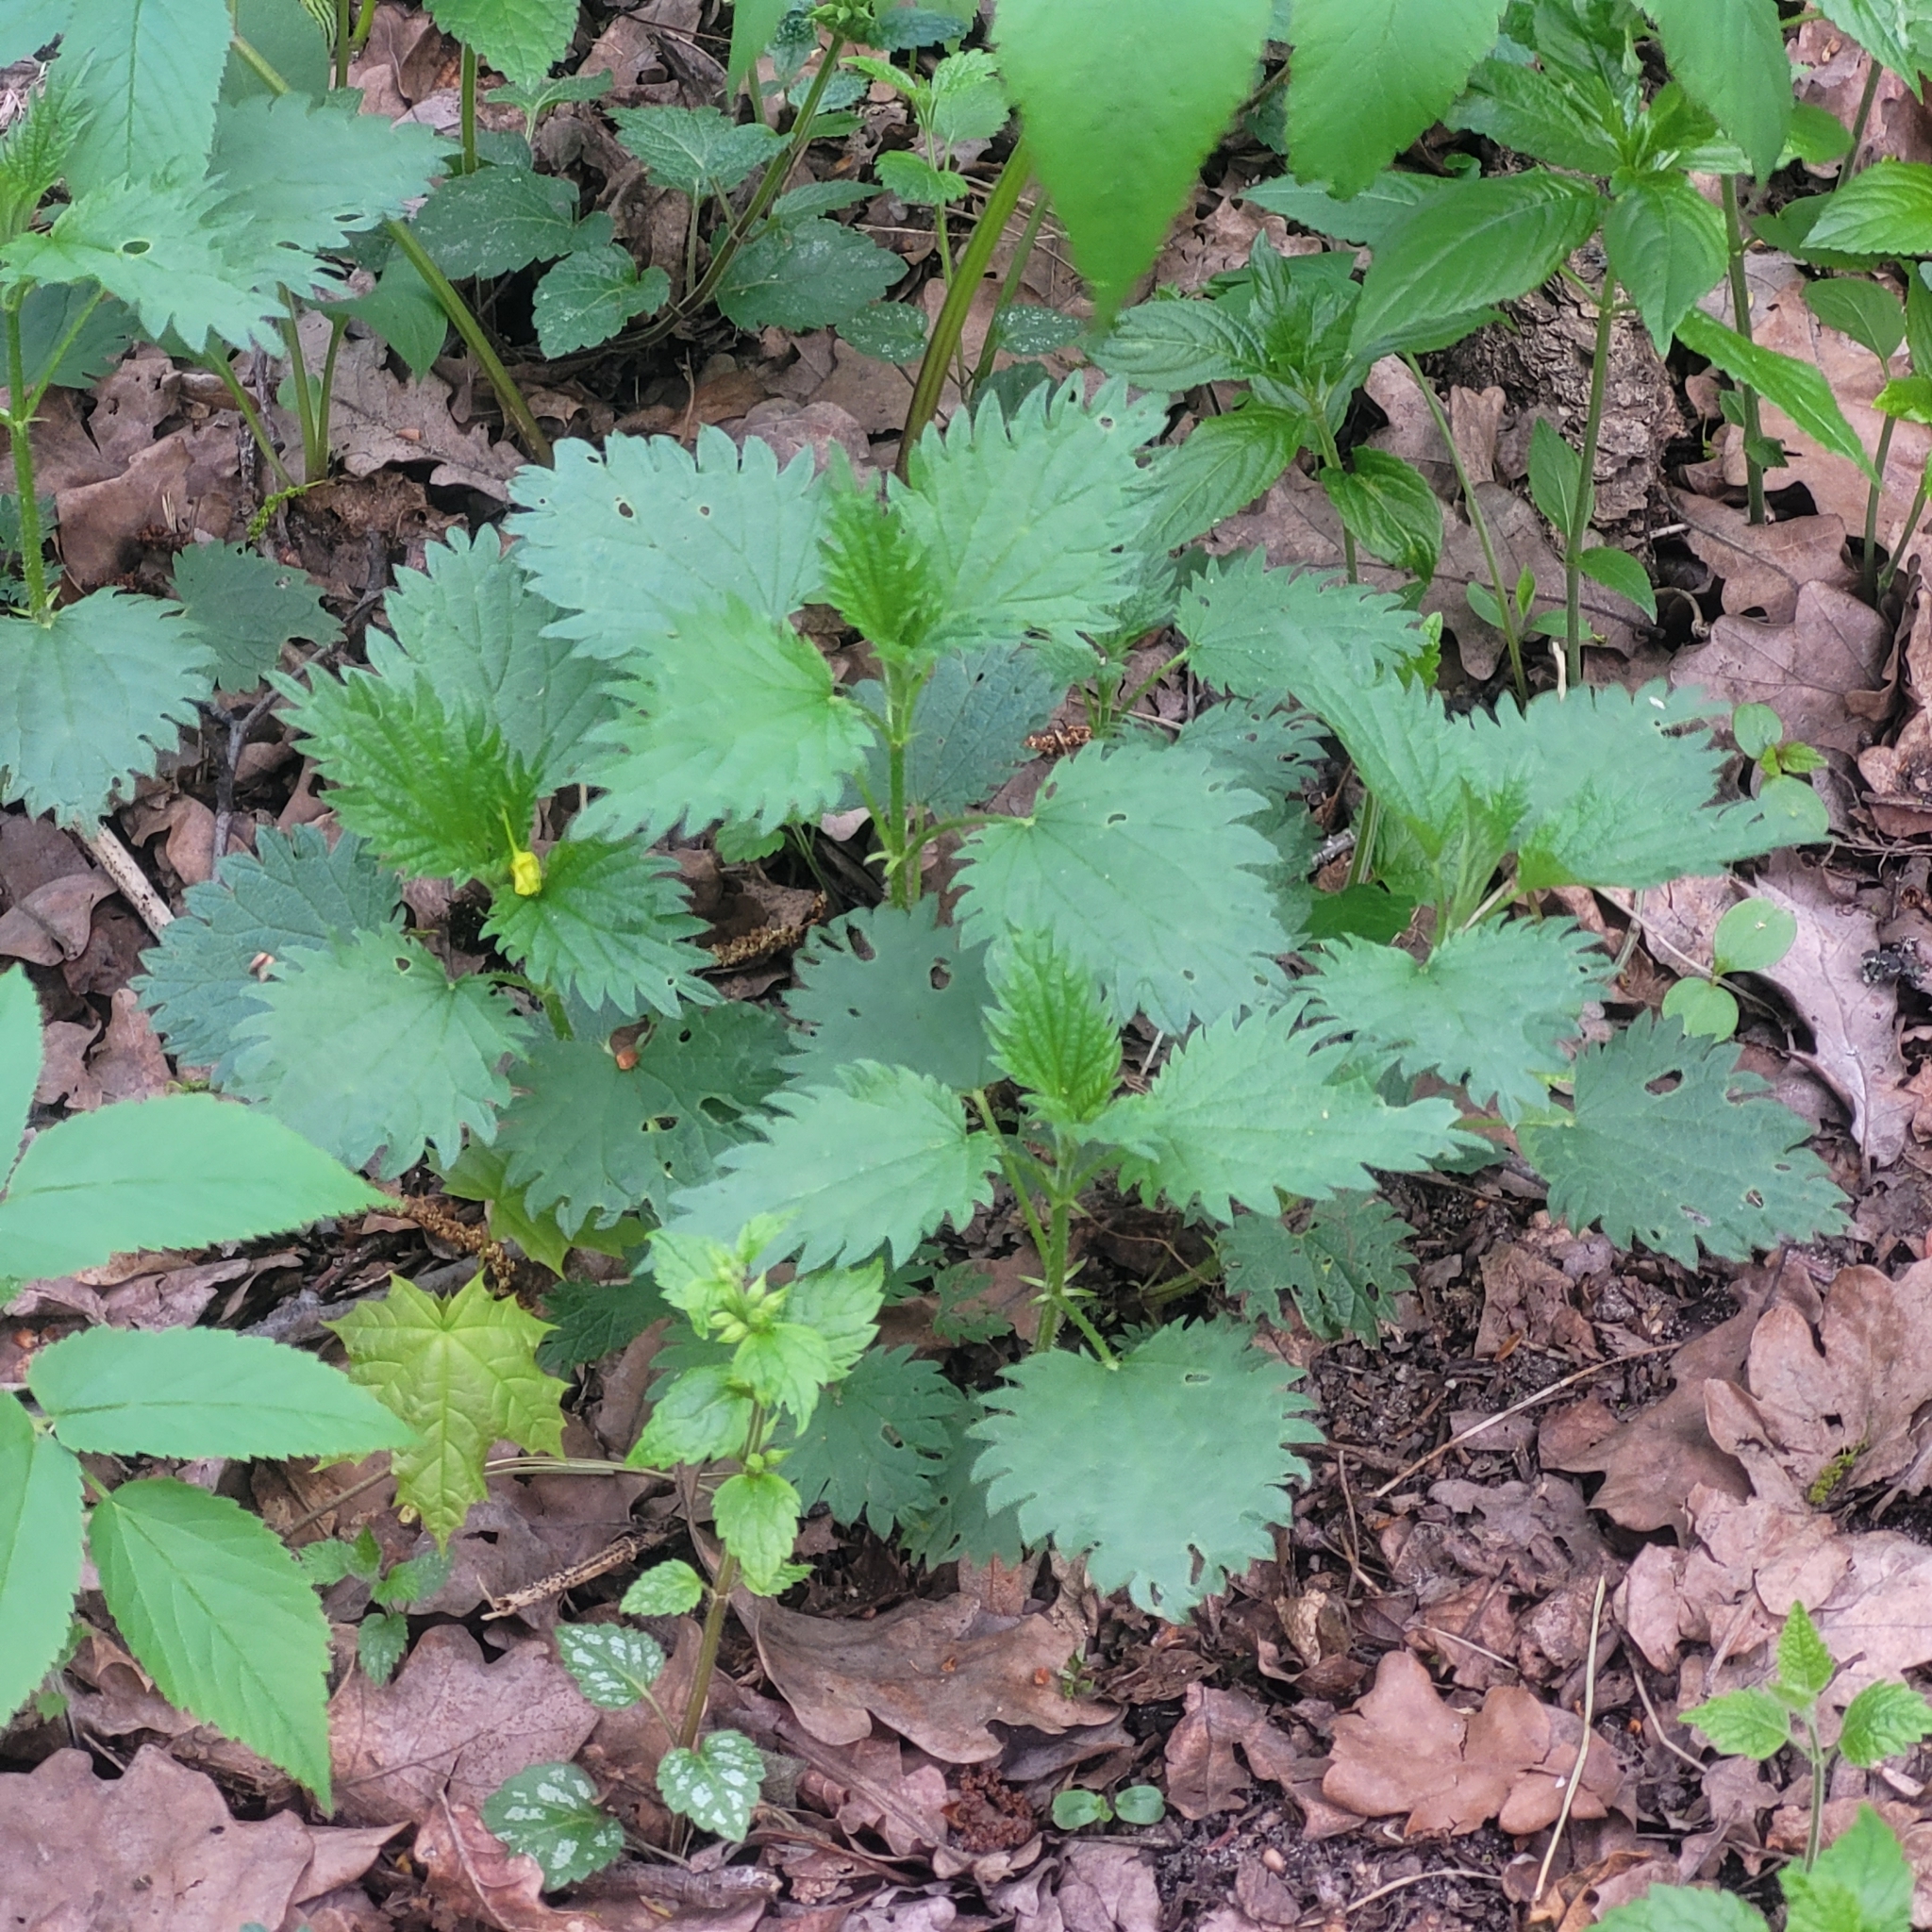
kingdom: Plantae
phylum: Tracheophyta
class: Magnoliopsida
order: Rosales
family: Urticaceae
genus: Urtica
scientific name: Urtica dioica
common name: Common nettle
